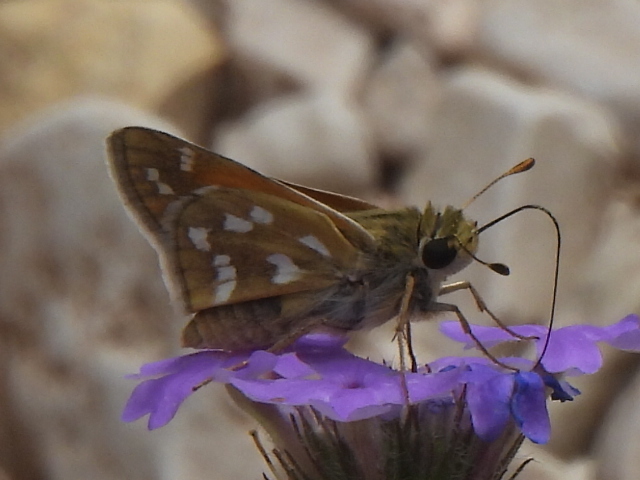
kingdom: Animalia
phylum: Arthropoda
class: Insecta
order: Lepidoptera
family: Hesperiidae
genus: Hesperia
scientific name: Hesperia viridis
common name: Green skipper
